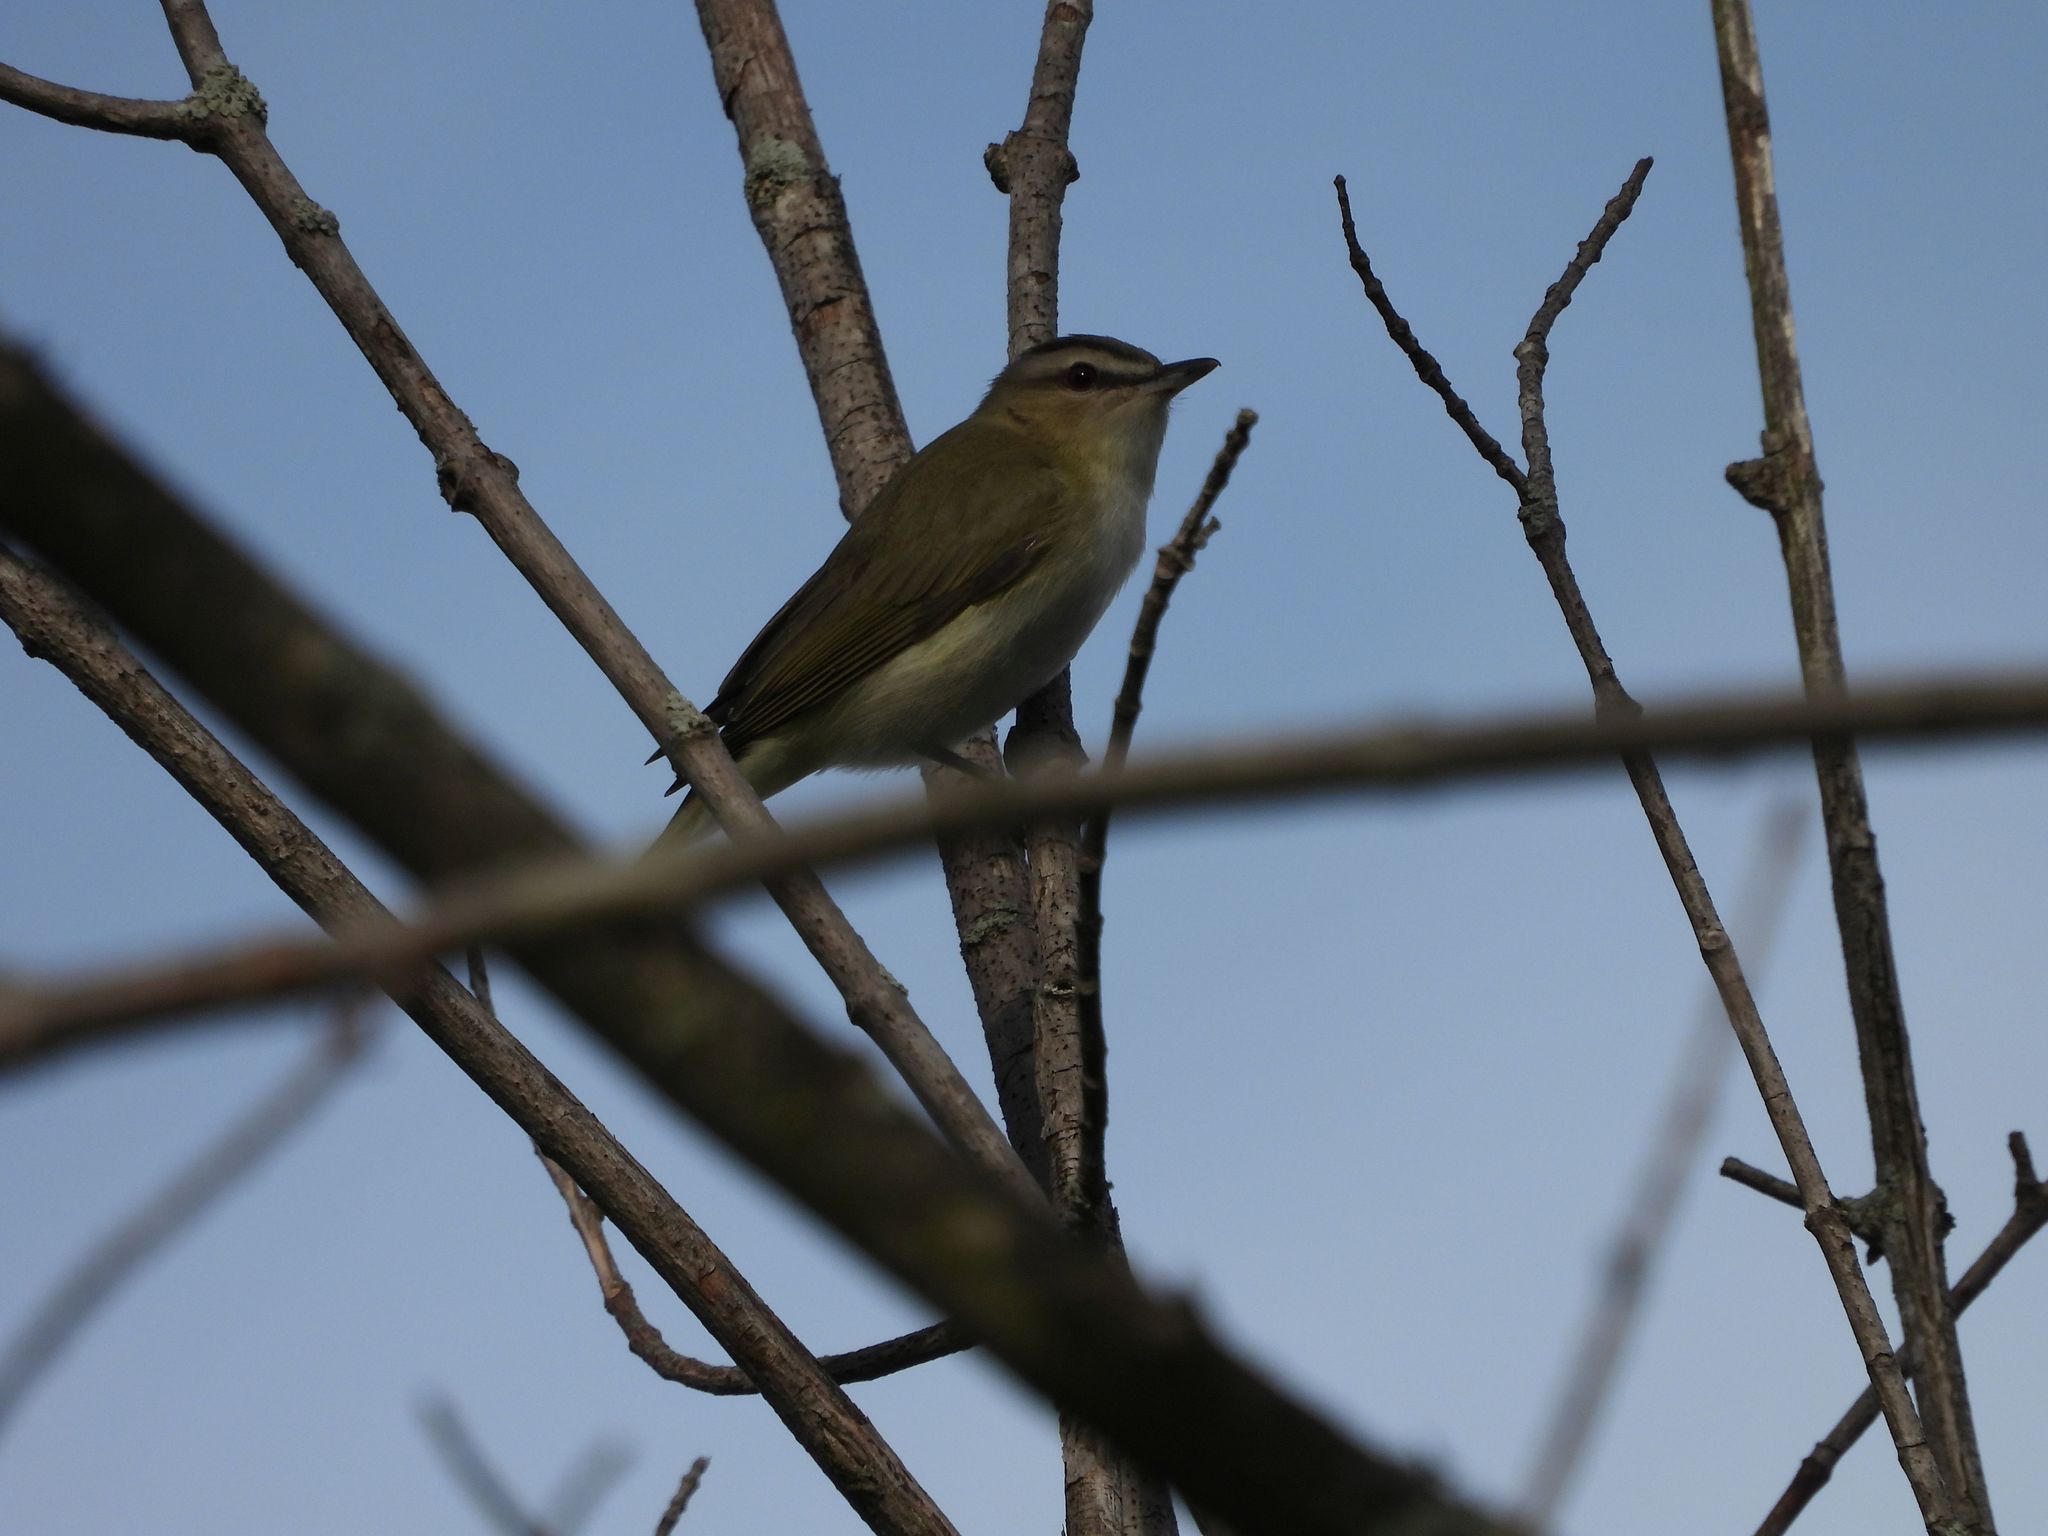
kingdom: Animalia
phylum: Chordata
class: Aves
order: Passeriformes
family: Vireonidae
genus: Vireo
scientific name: Vireo olivaceus
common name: Red-eyed vireo
